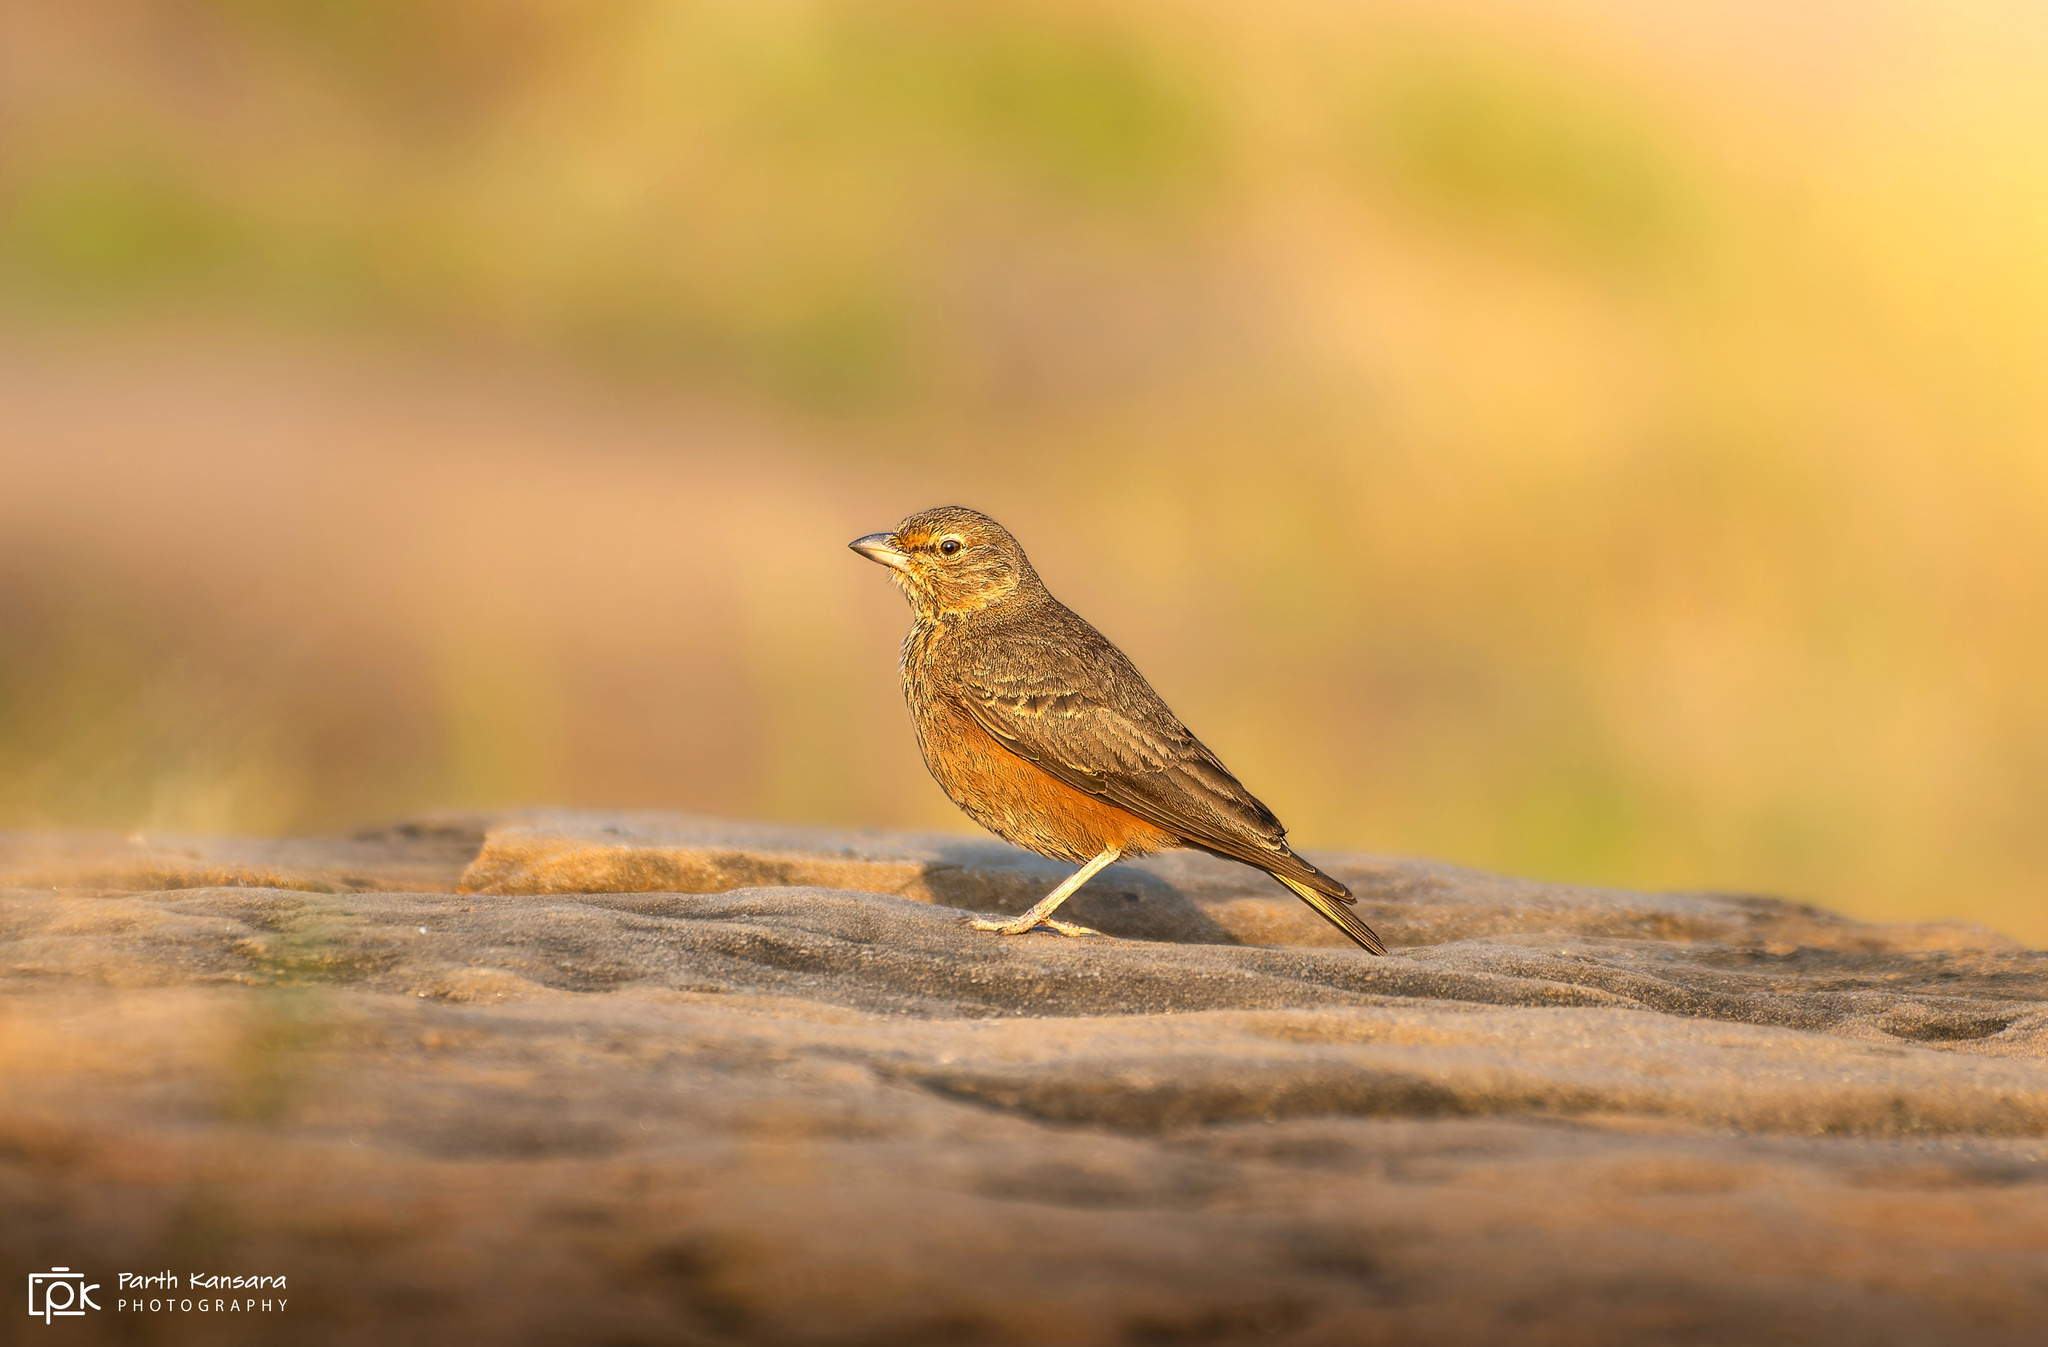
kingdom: Animalia
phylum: Chordata
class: Aves
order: Passeriformes
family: Alaudidae
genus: Ammomanes
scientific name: Ammomanes phoenicura
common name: Rufous-tailed lark
